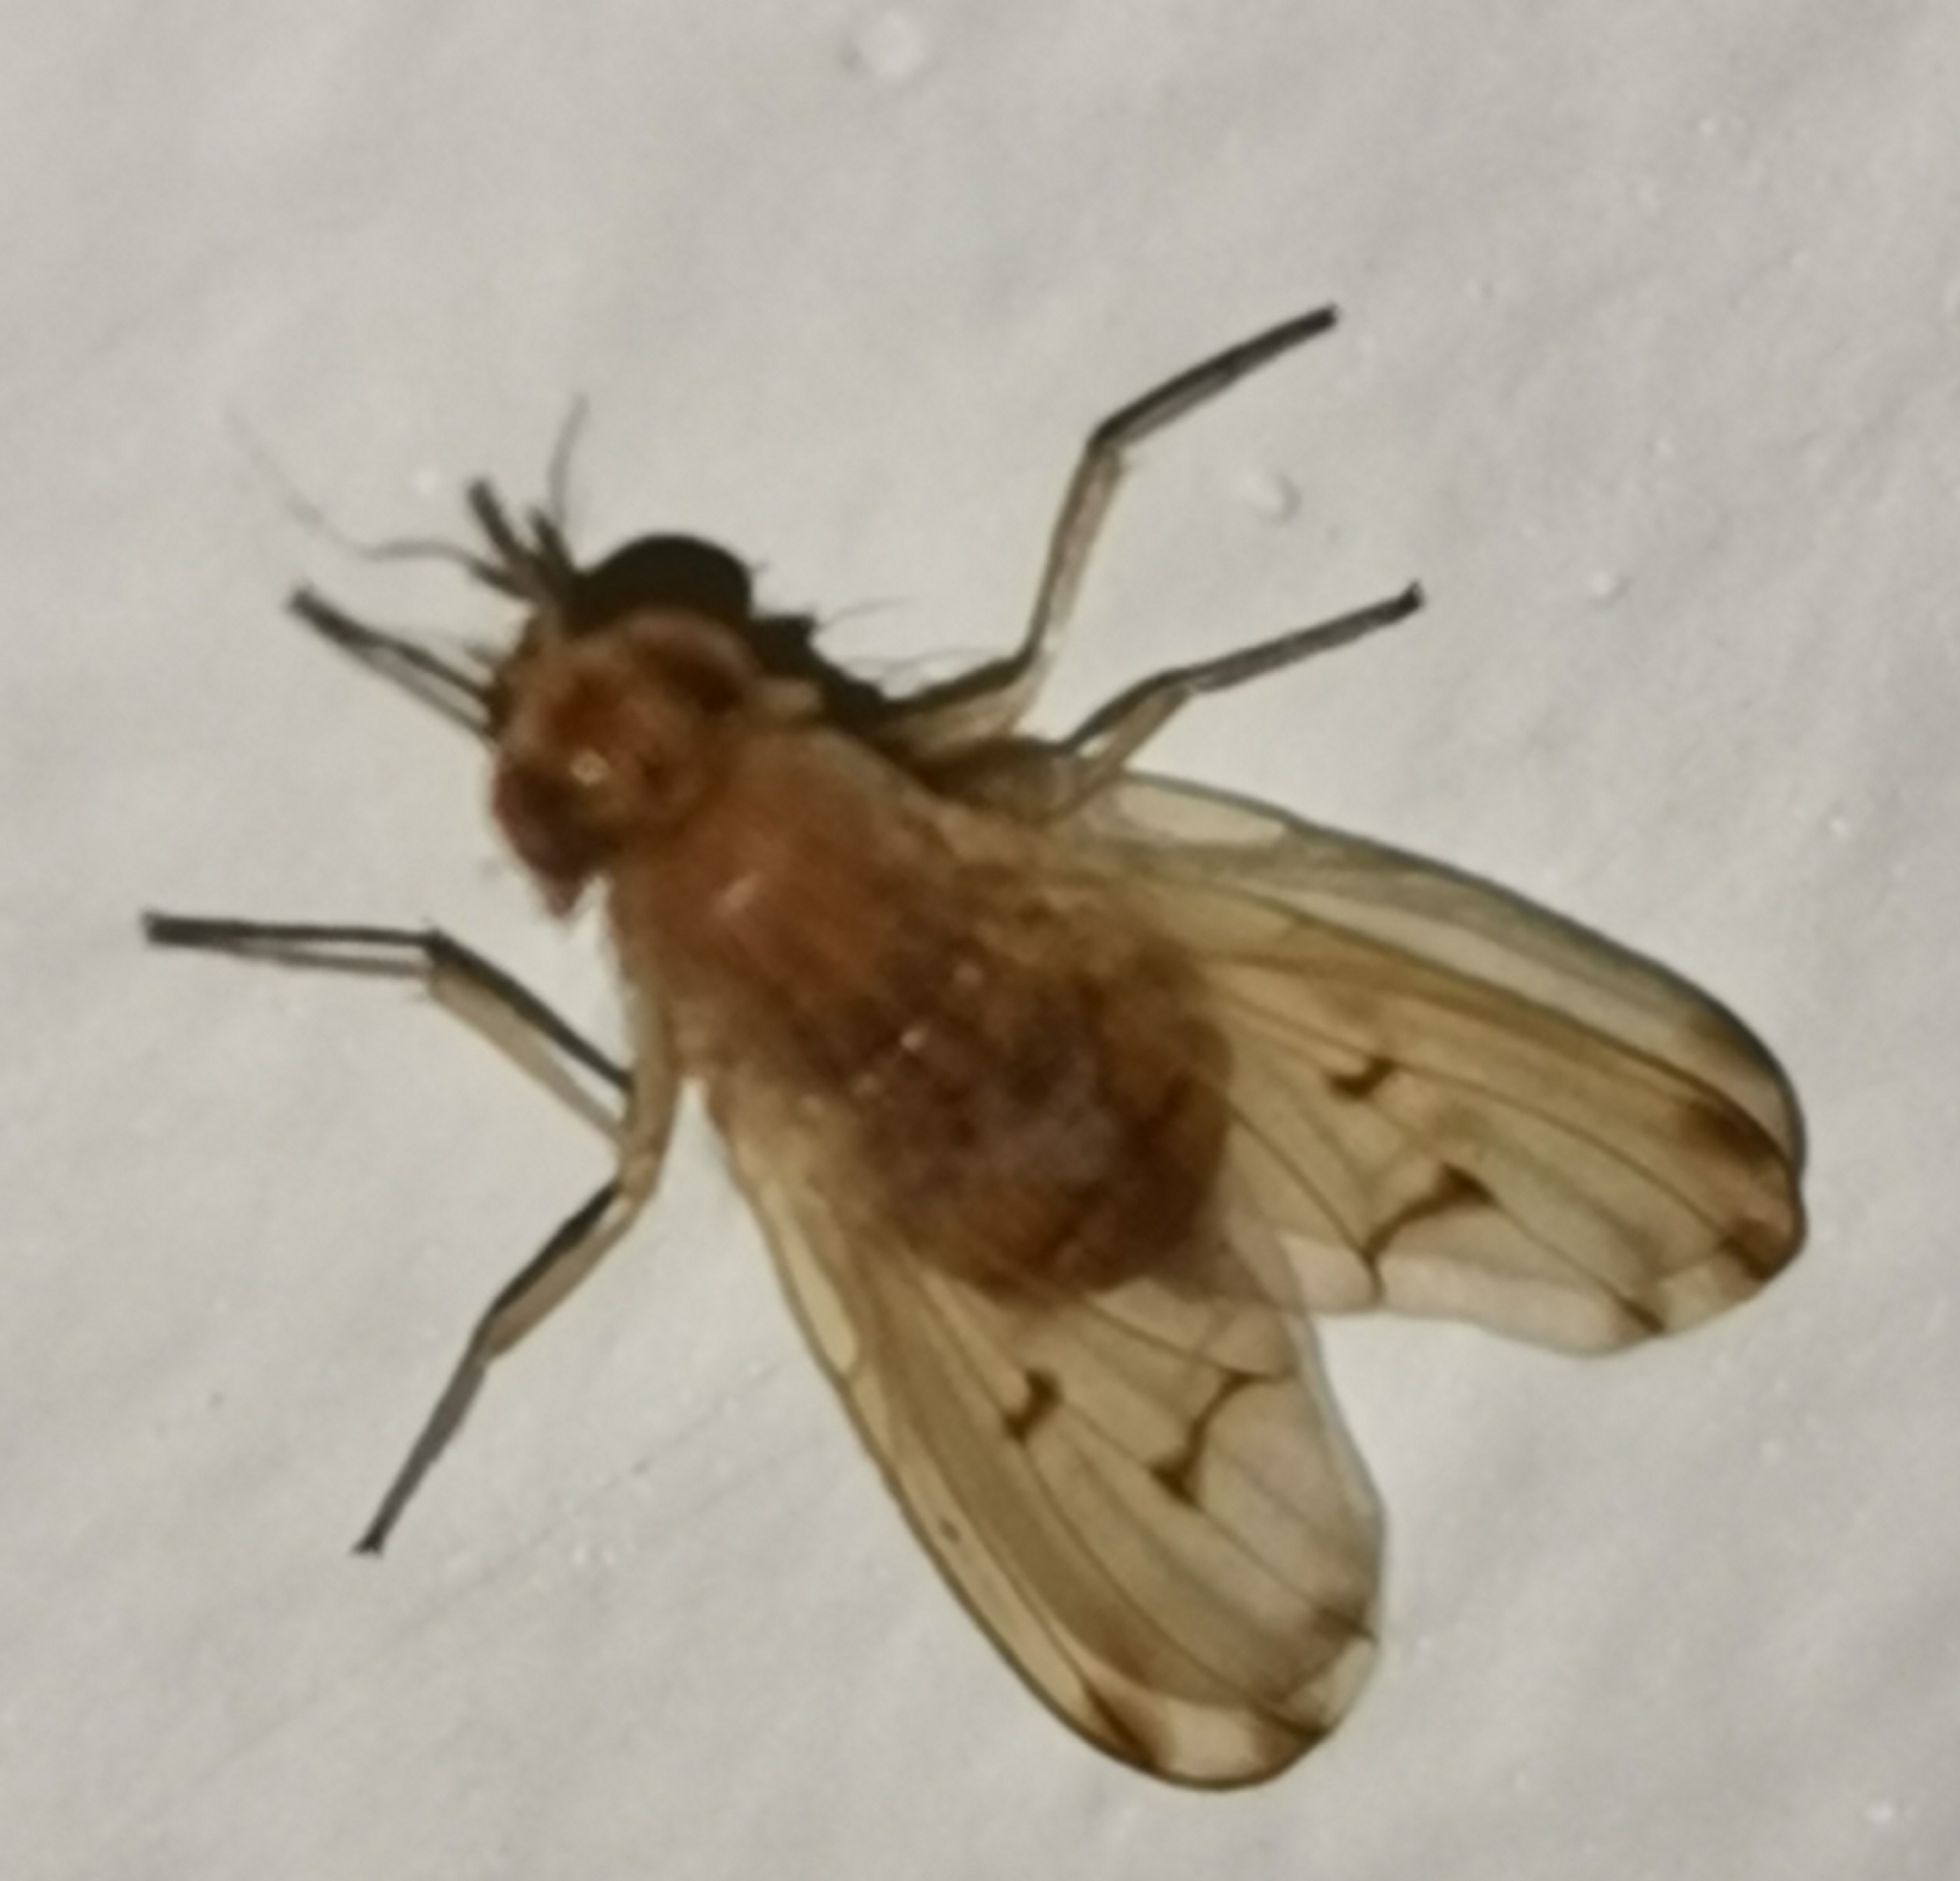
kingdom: Animalia
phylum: Arthropoda
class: Insecta
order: Diptera
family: Lauxaniidae
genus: Meiosimyza
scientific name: Meiosimyza decempunctata
